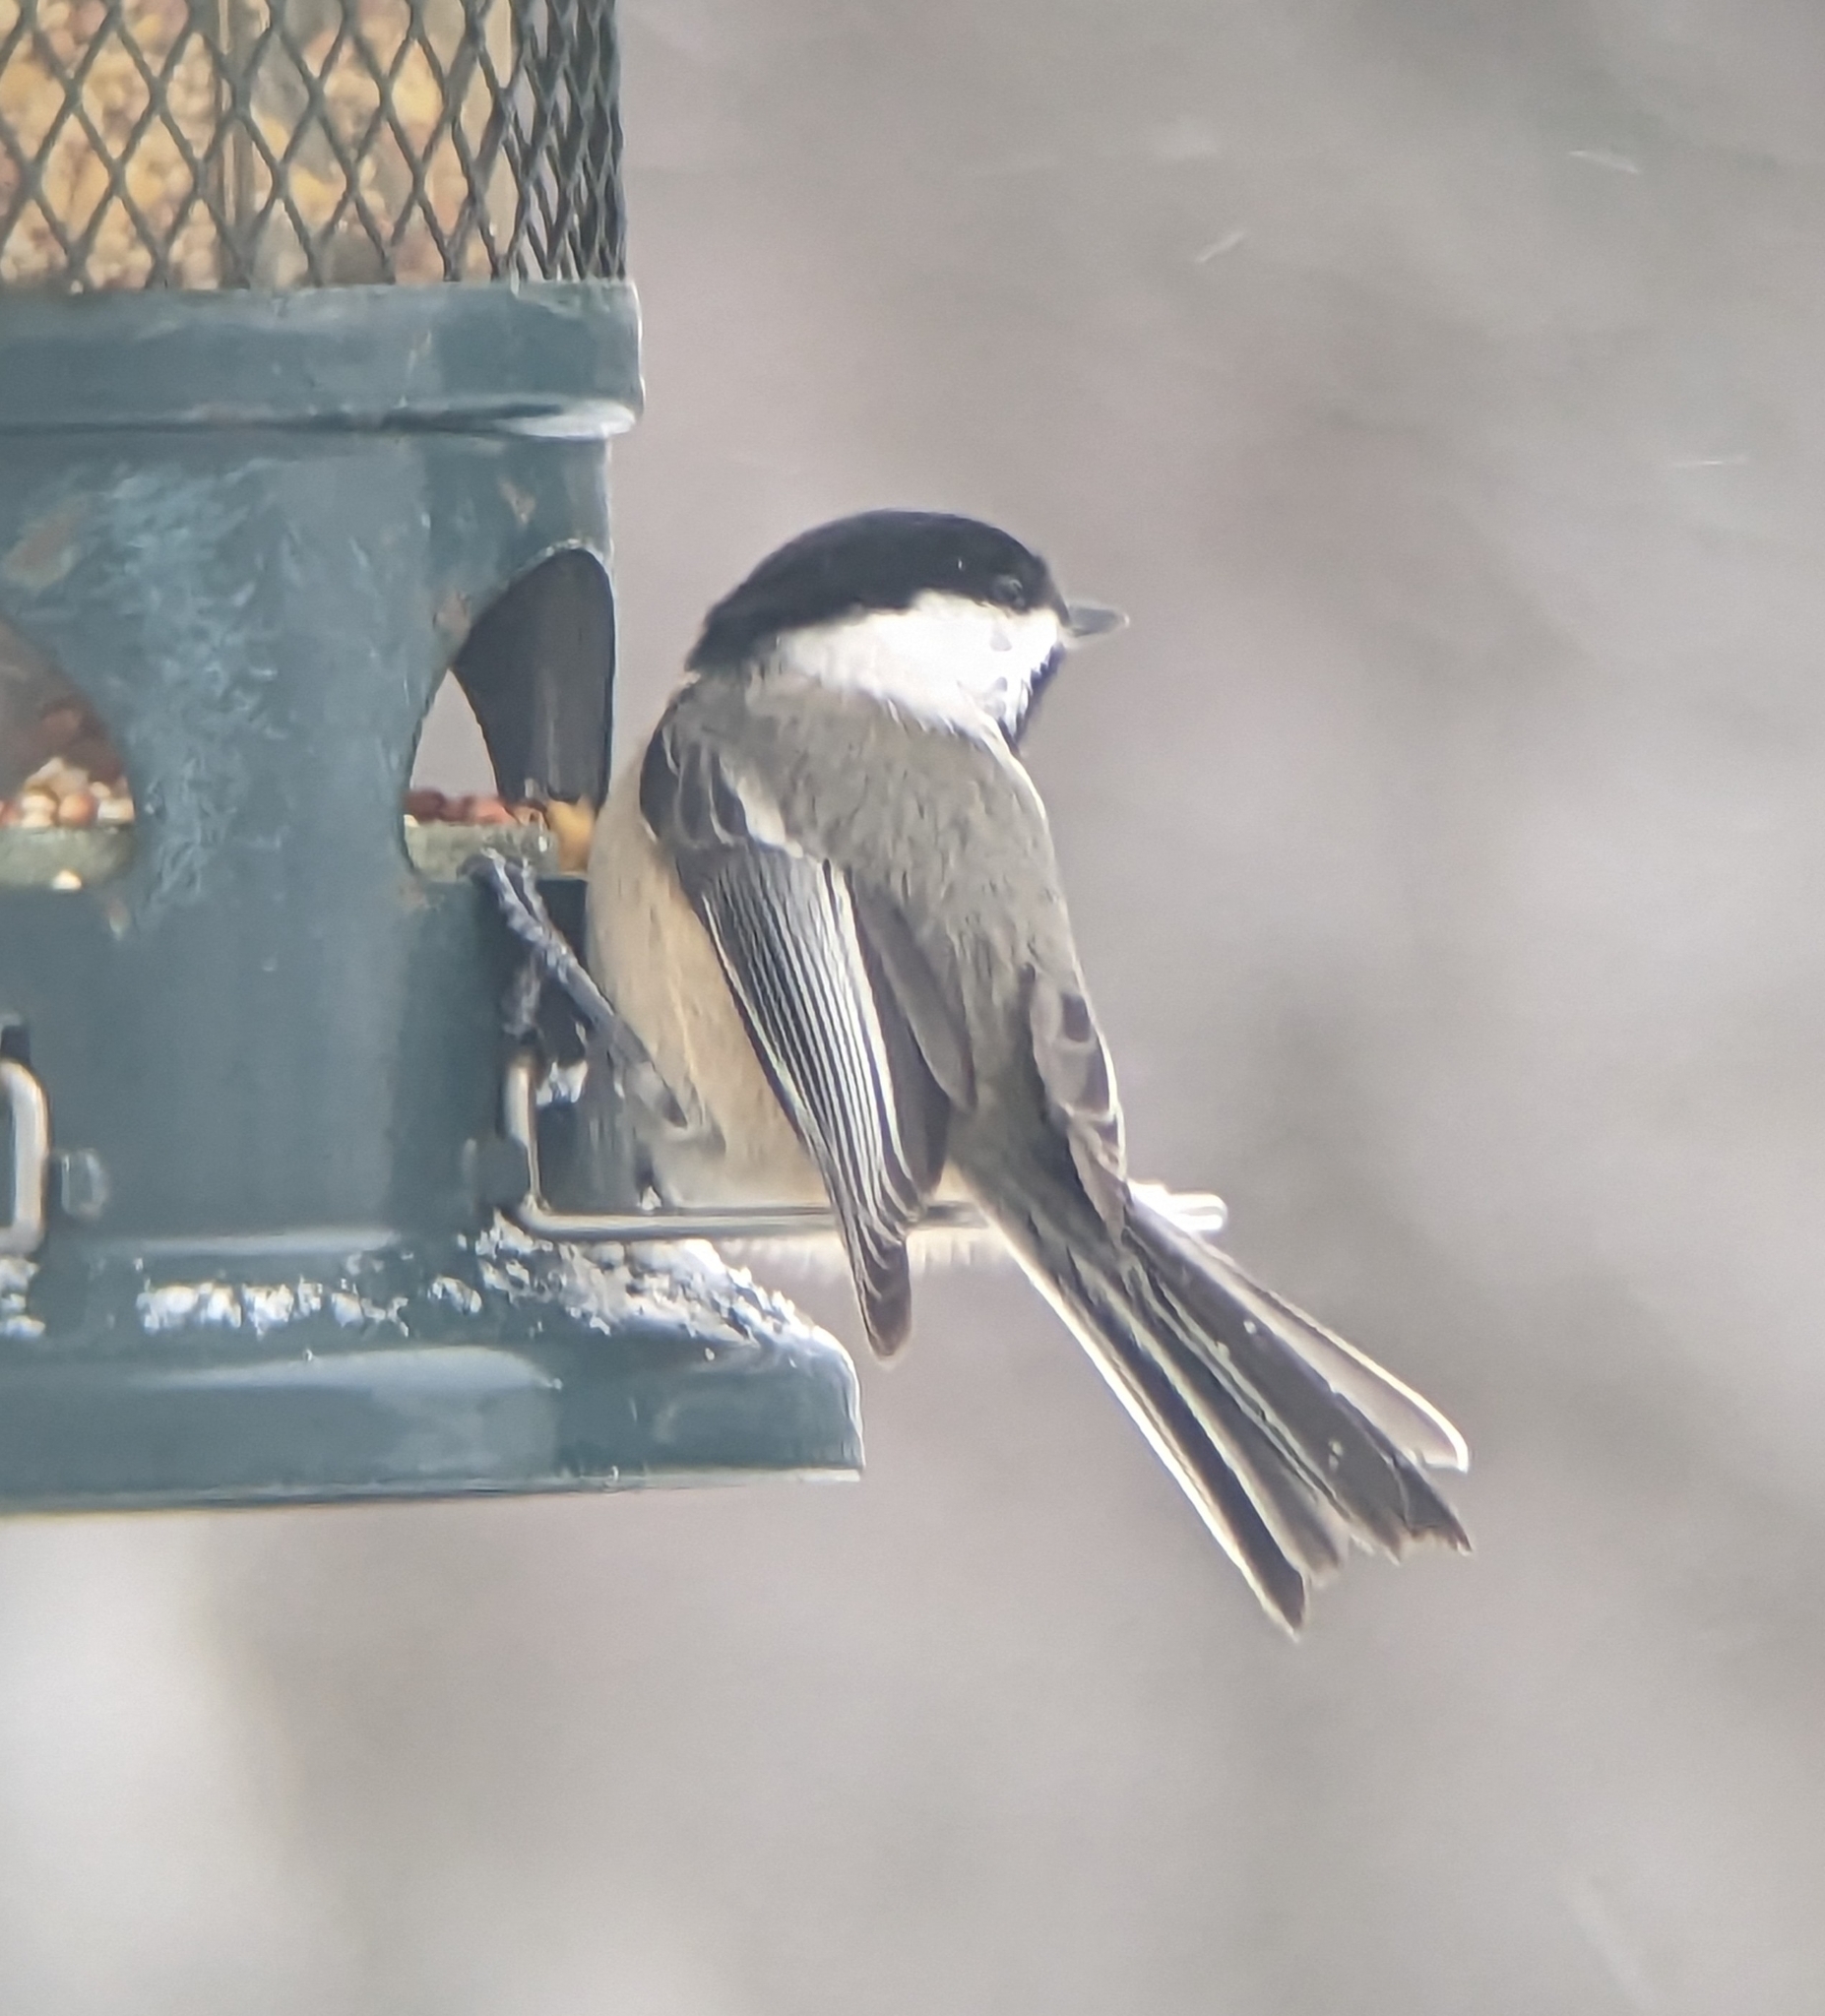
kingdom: Animalia
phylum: Chordata
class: Aves
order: Passeriformes
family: Paridae
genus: Poecile
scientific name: Poecile atricapillus
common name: Black-capped chickadee
